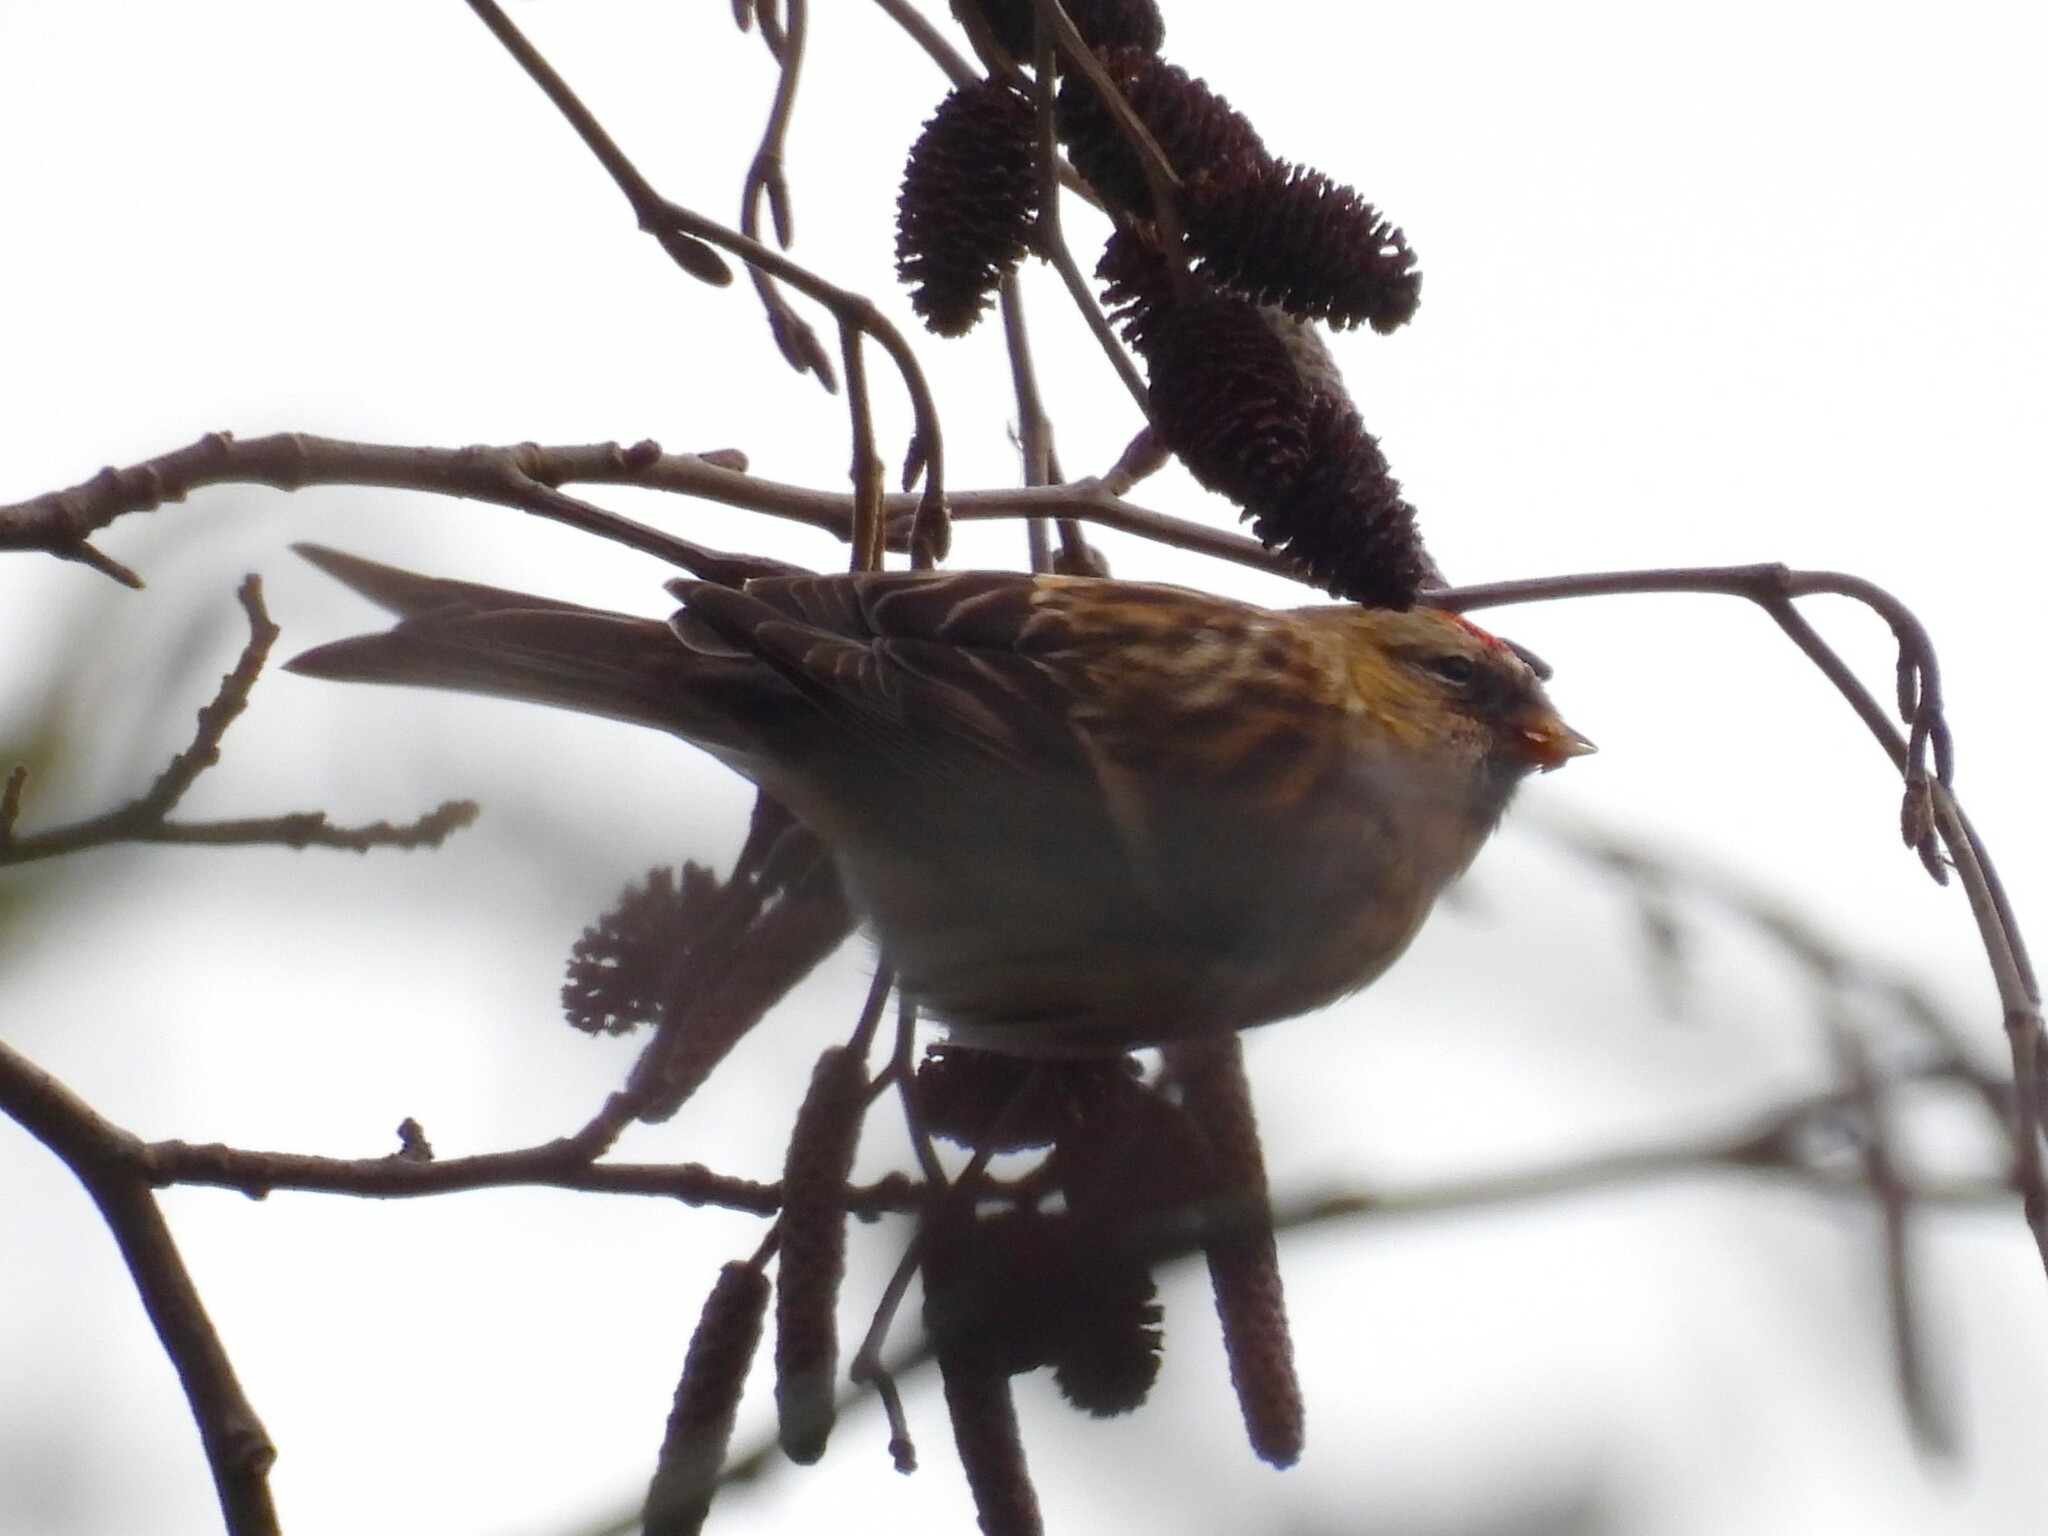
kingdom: Animalia
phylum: Chordata
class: Aves
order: Passeriformes
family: Fringillidae
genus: Acanthis
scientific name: Acanthis flammea
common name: Common redpoll
